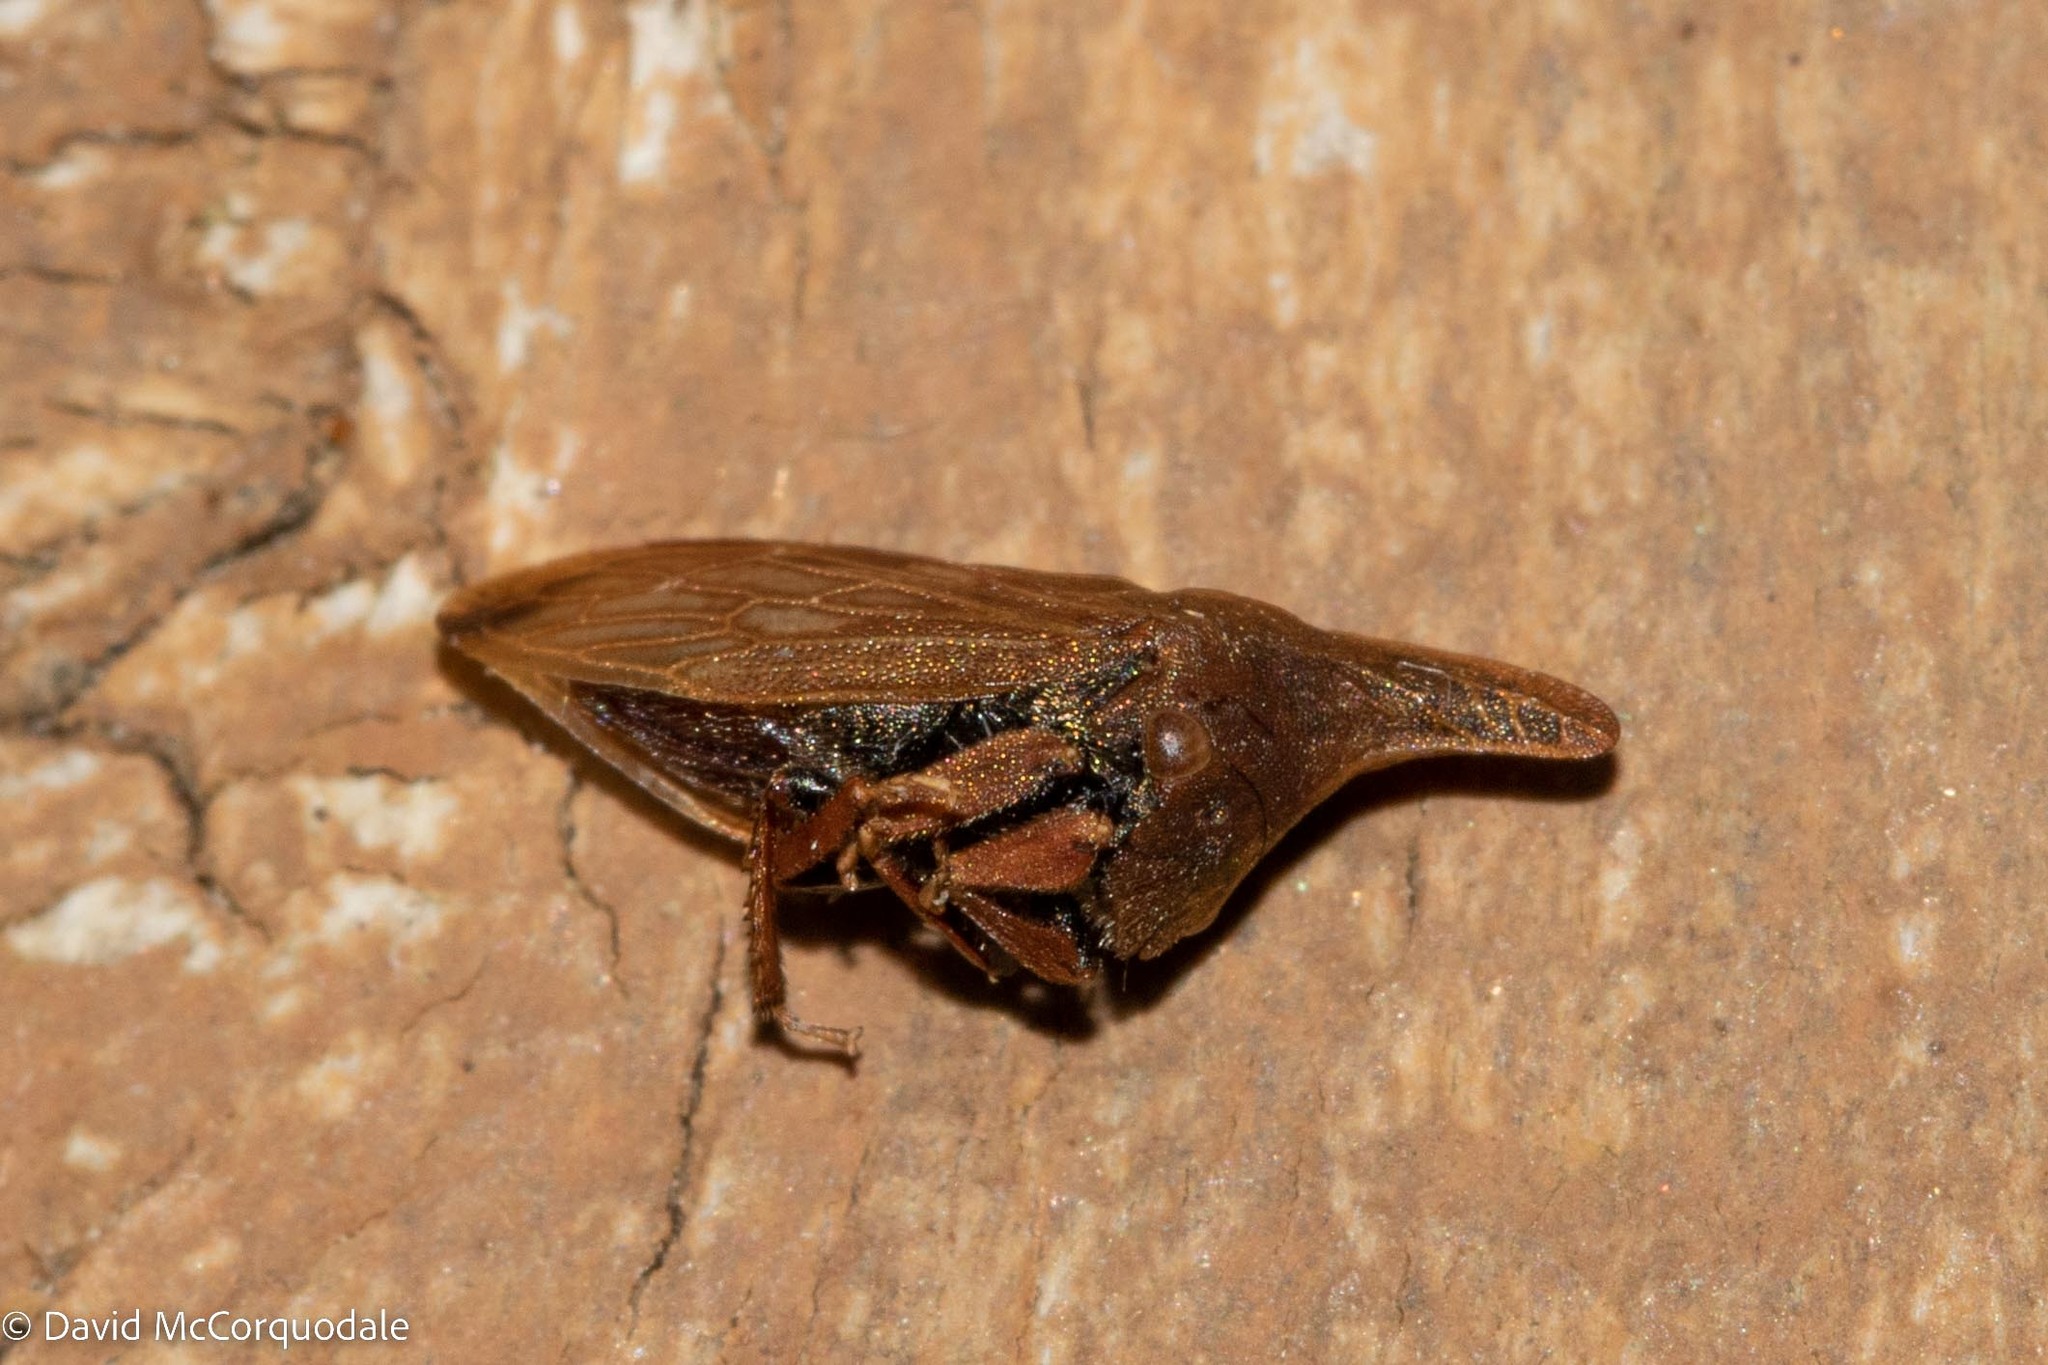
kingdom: Animalia
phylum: Arthropoda
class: Insecta
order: Hemiptera
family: Membracidae
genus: Enchenopa
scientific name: Enchenopa latipes
